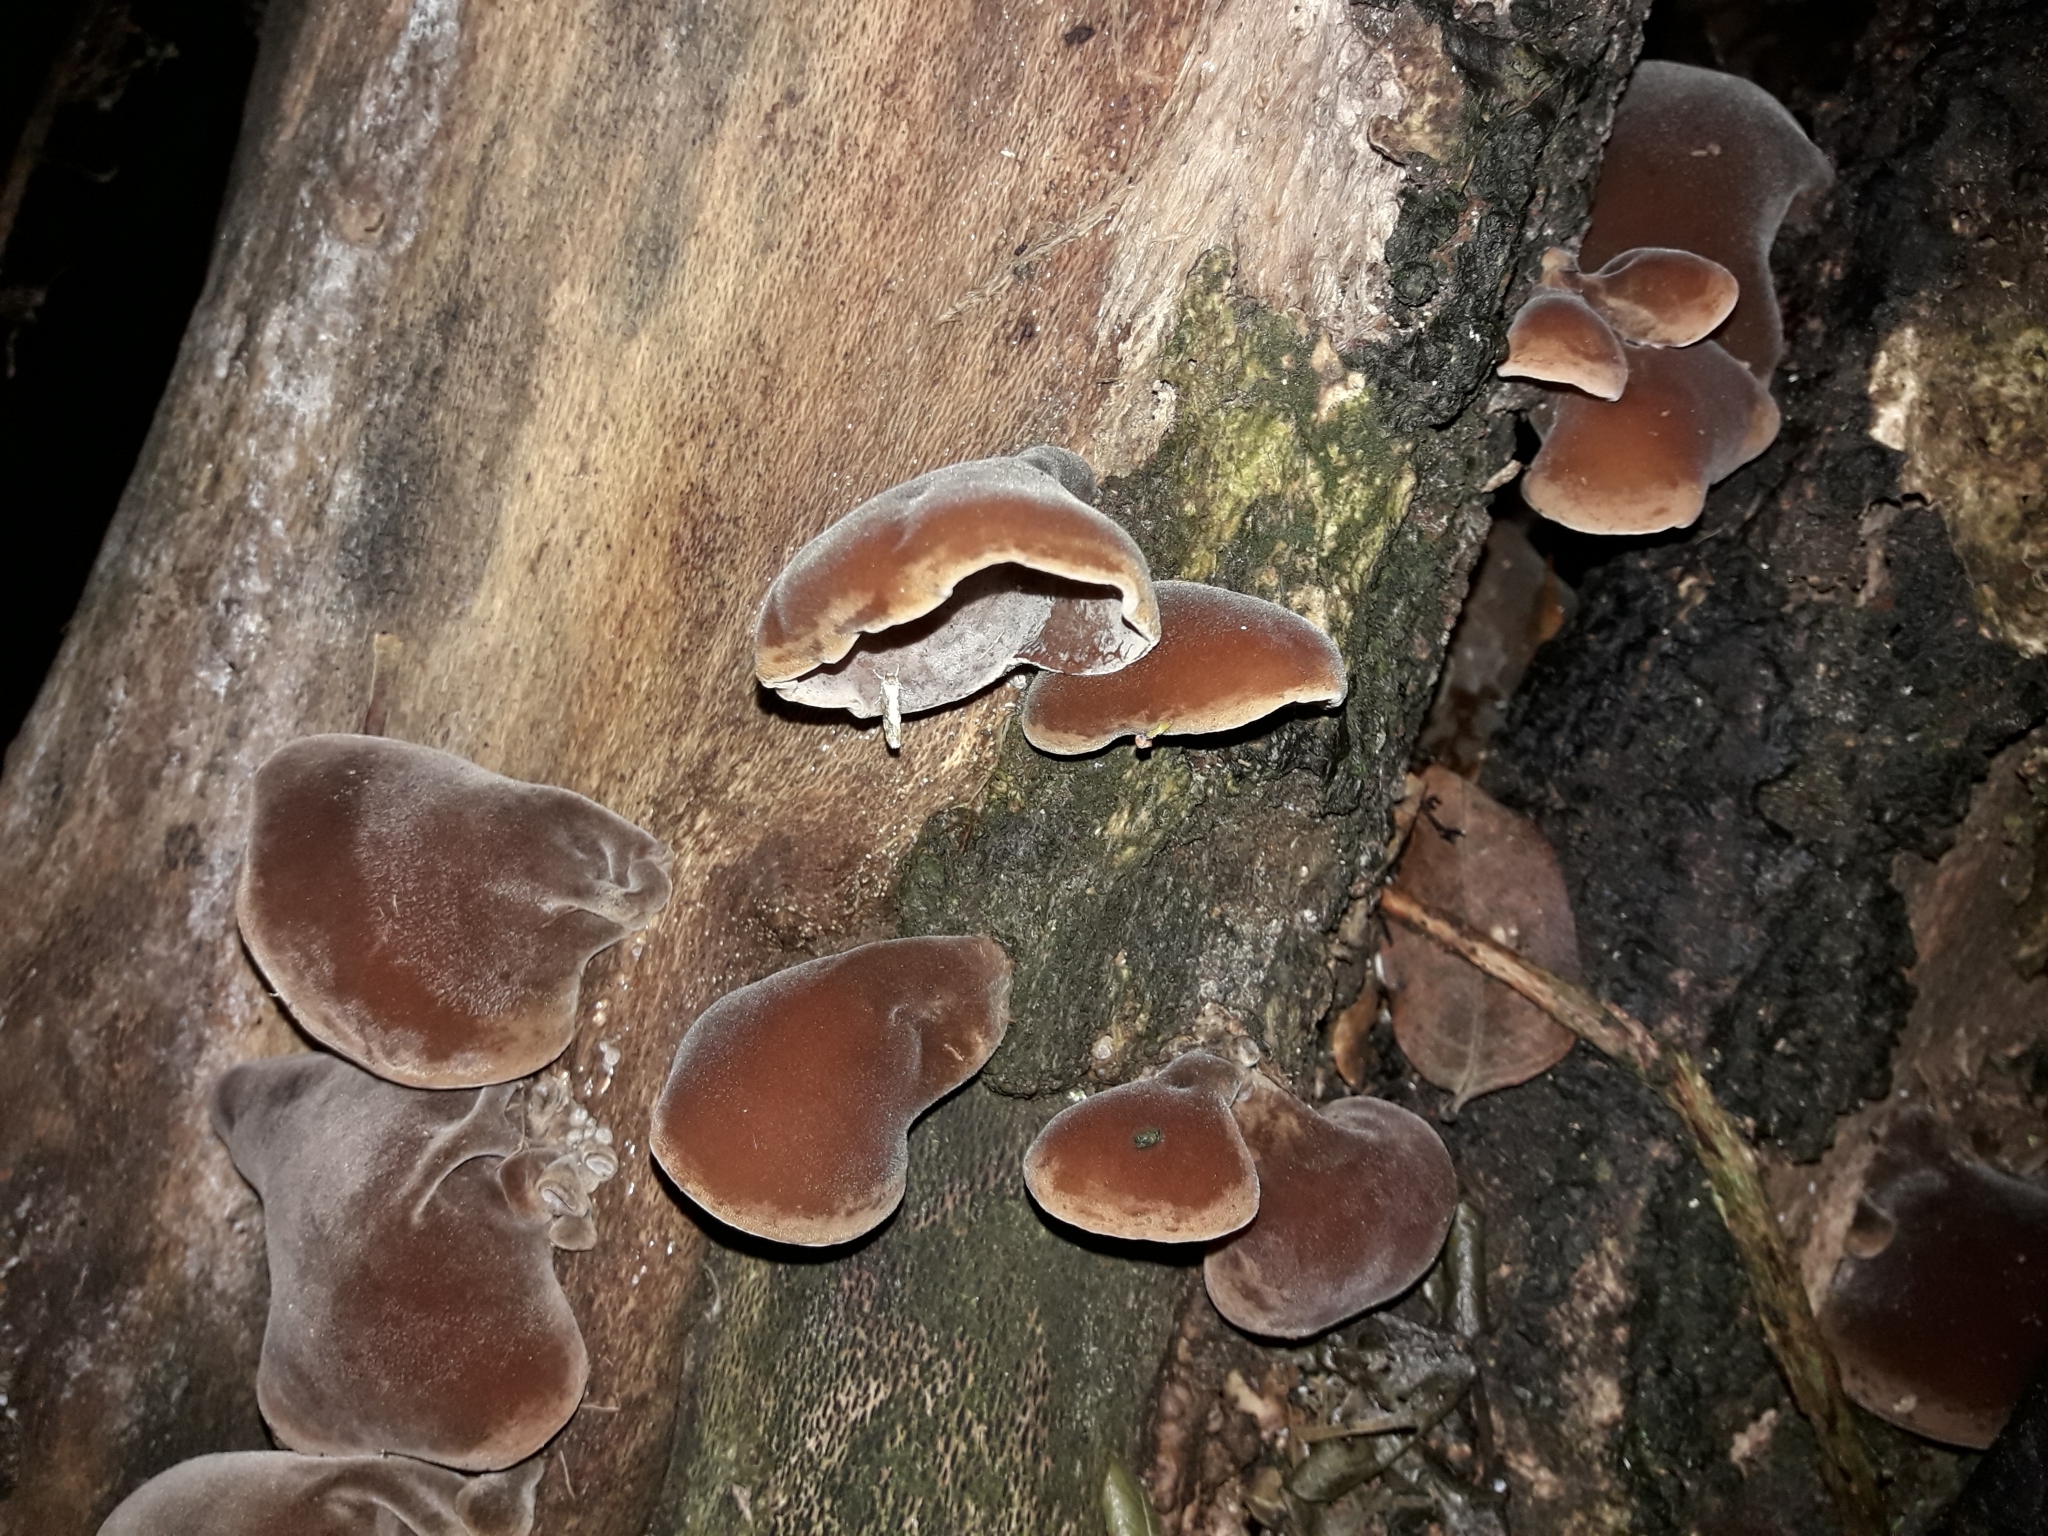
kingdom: Fungi
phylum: Basidiomycota
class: Agaricomycetes
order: Auriculariales
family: Auriculariaceae
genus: Auricularia
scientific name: Auricularia cornea
